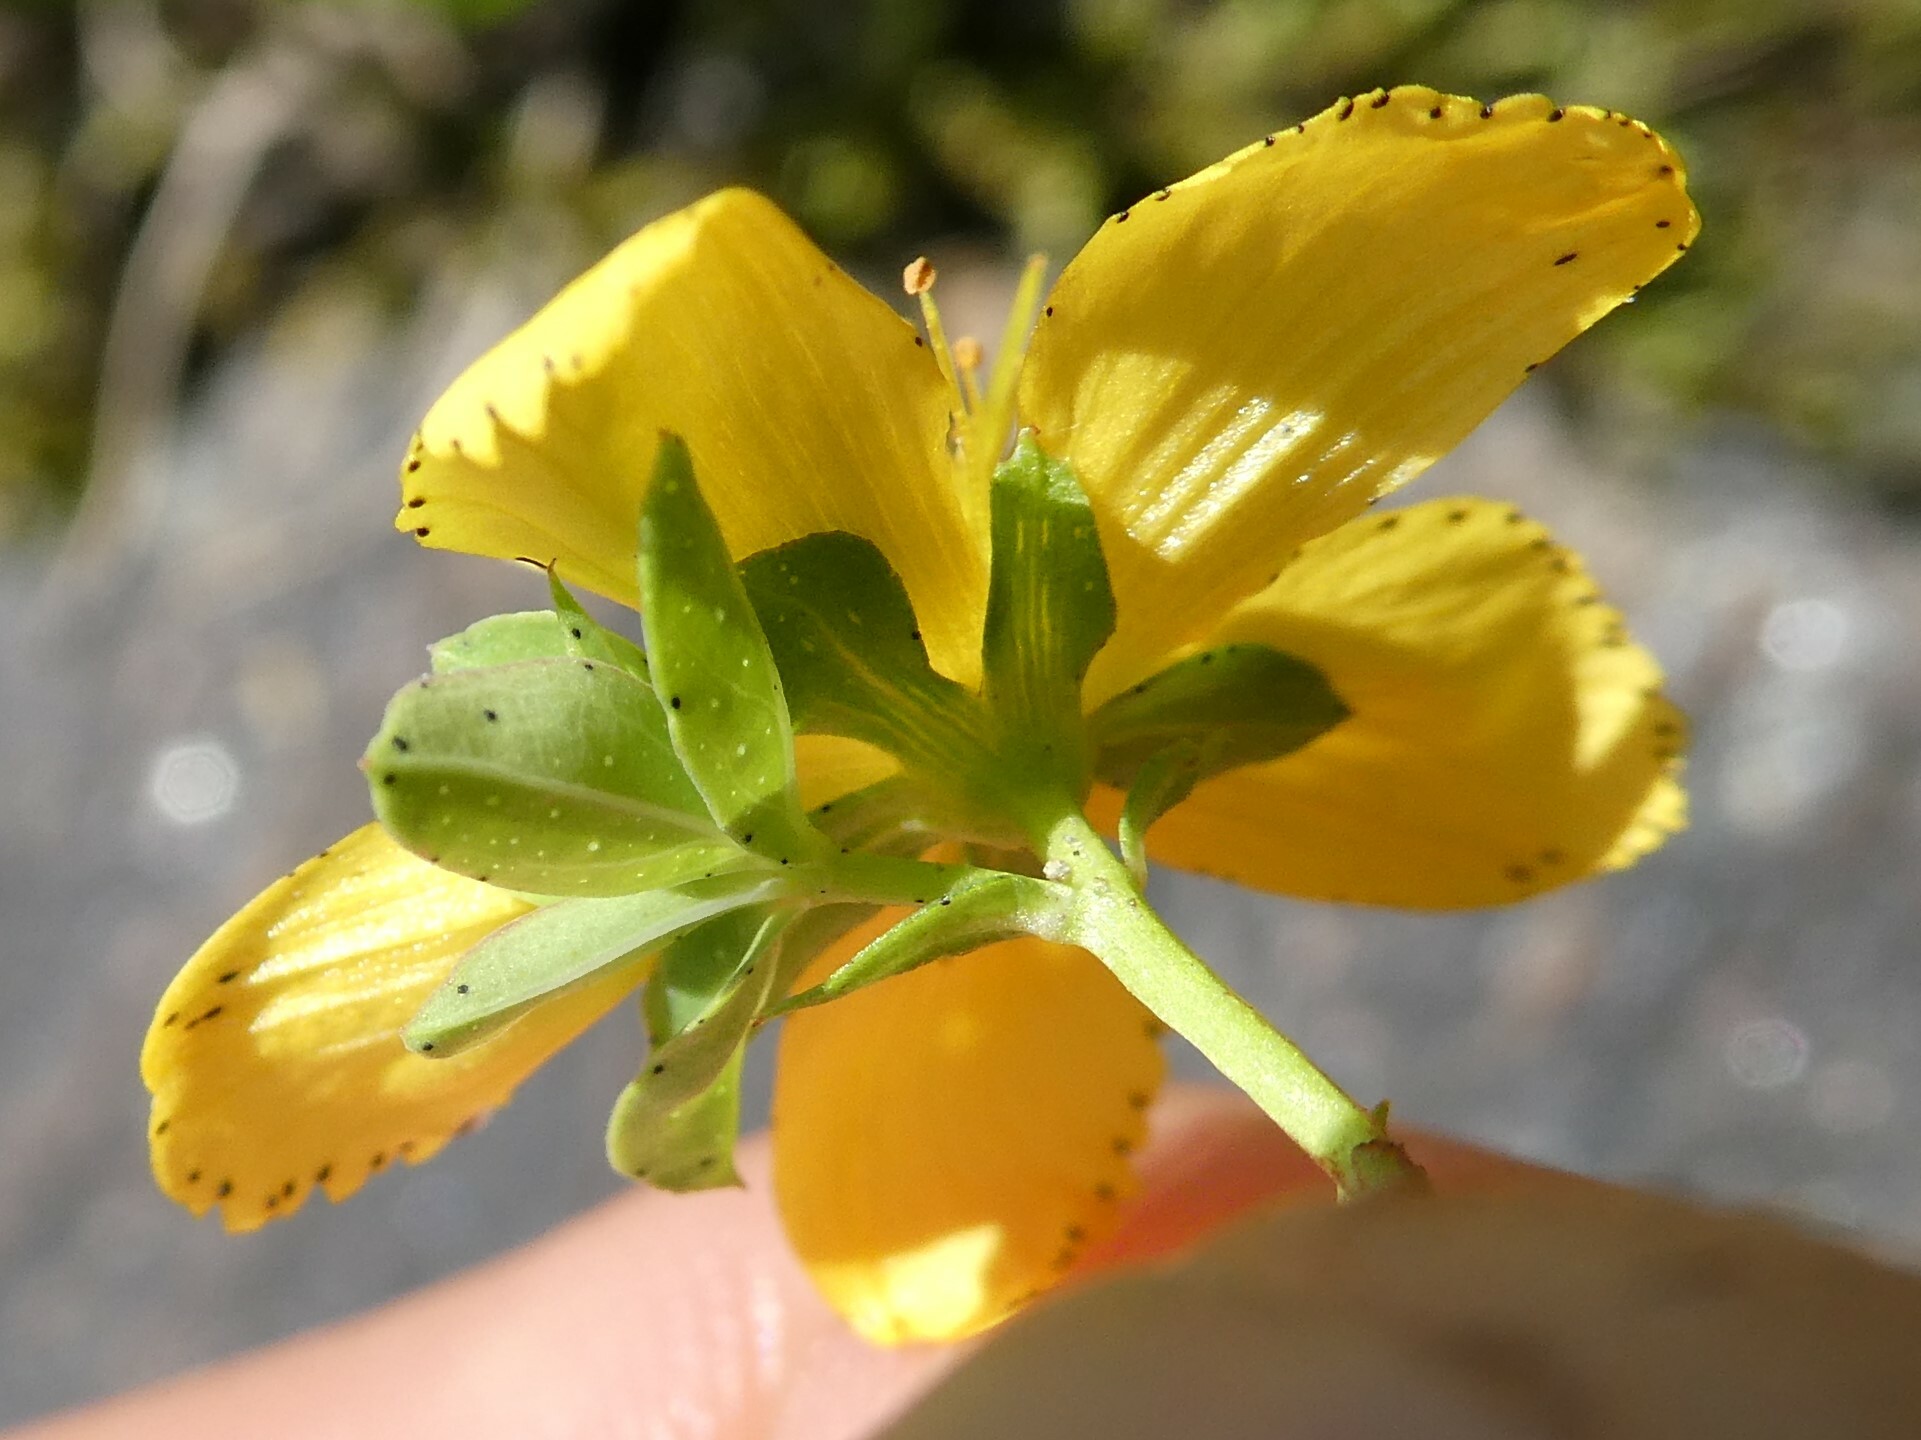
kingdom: Plantae
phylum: Tracheophyta
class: Magnoliopsida
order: Malpighiales
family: Hypericaceae
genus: Hypericum
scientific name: Hypericum perforatum
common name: Common st. johnswort
